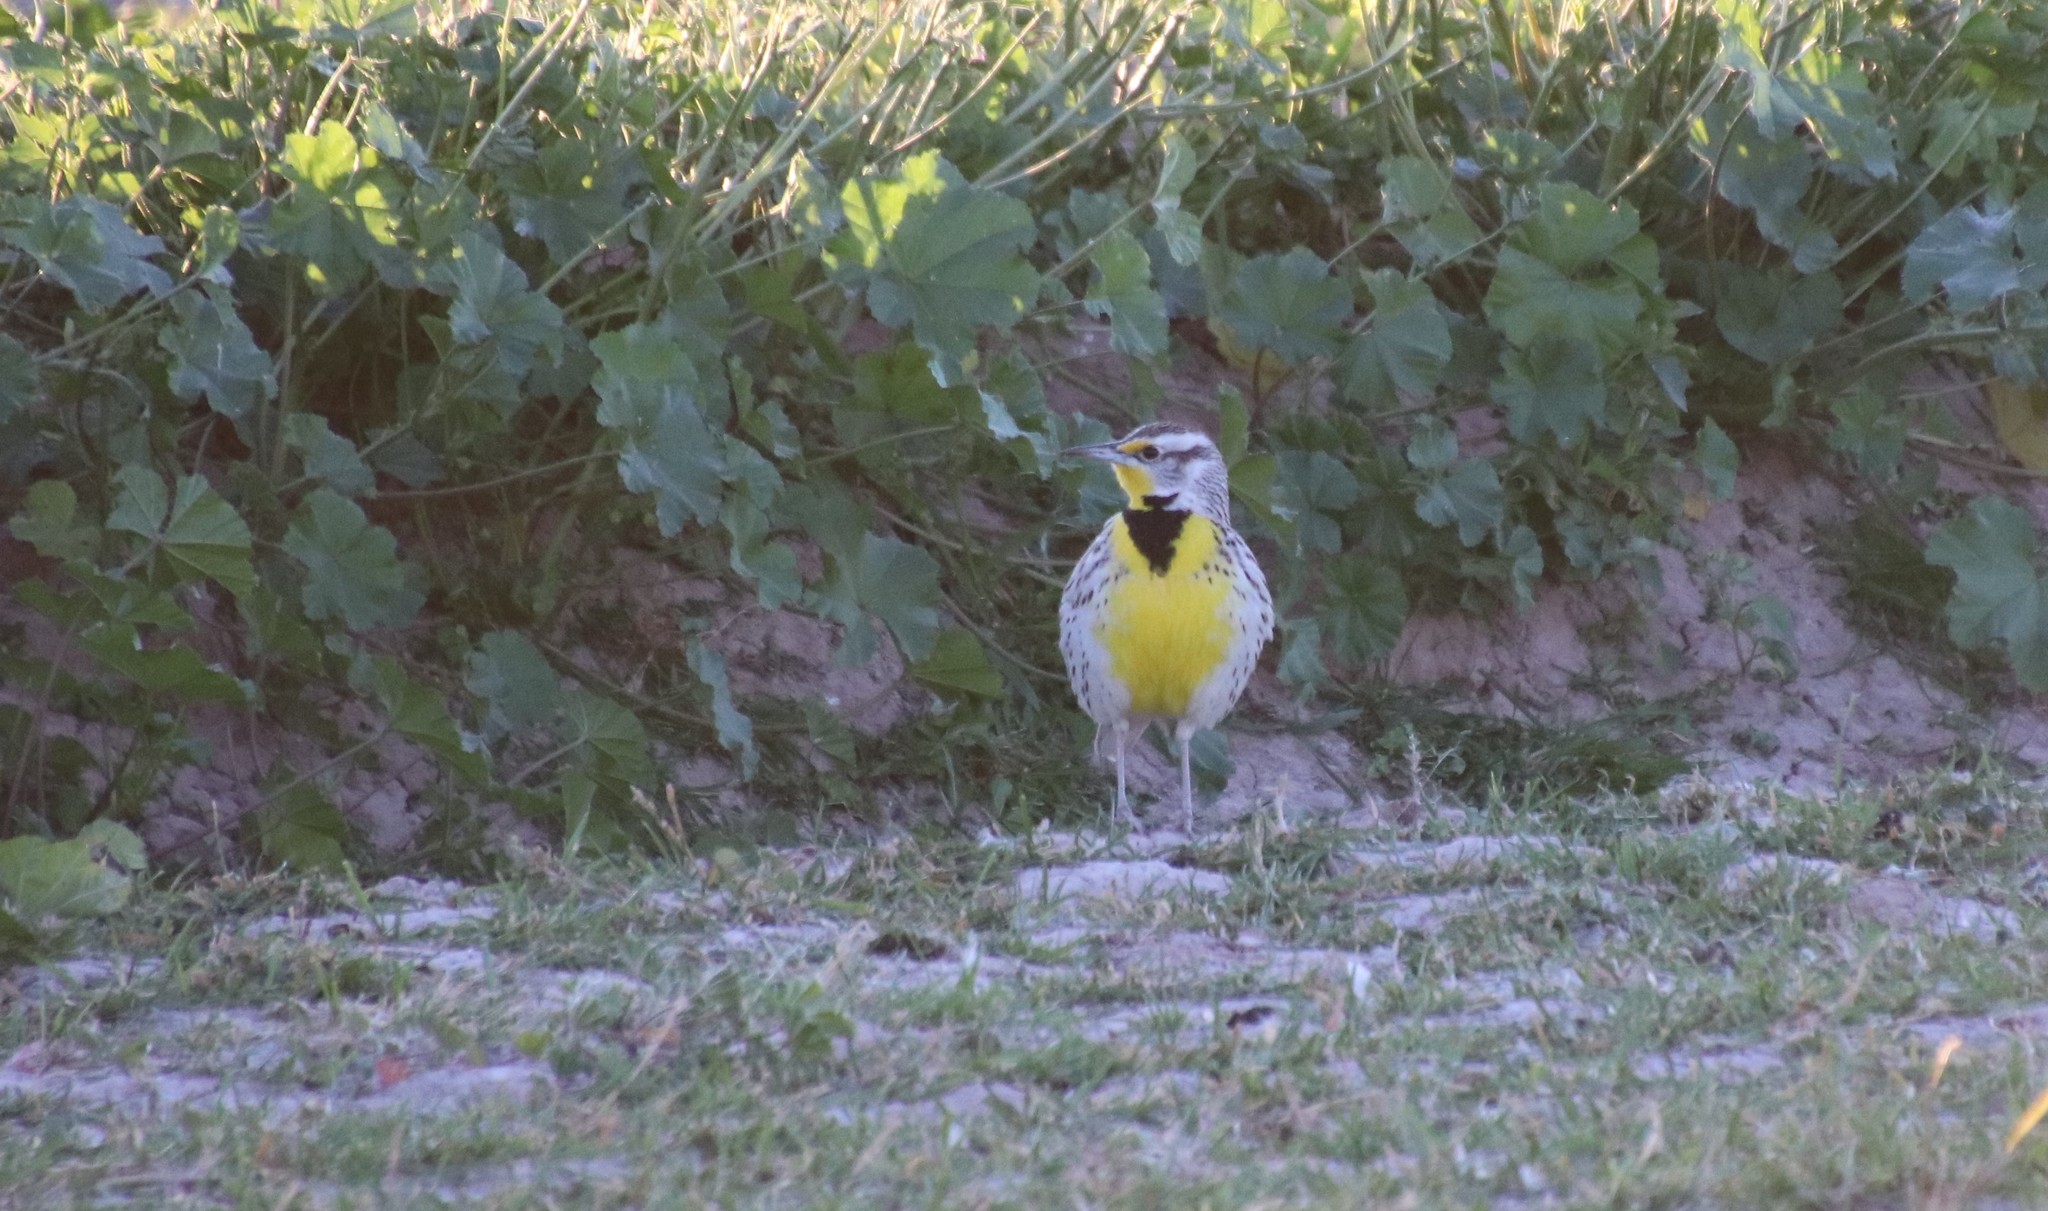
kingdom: Animalia
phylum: Chordata
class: Aves
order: Passeriformes
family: Icteridae
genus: Sturnella
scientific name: Sturnella neglecta
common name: Western meadowlark
